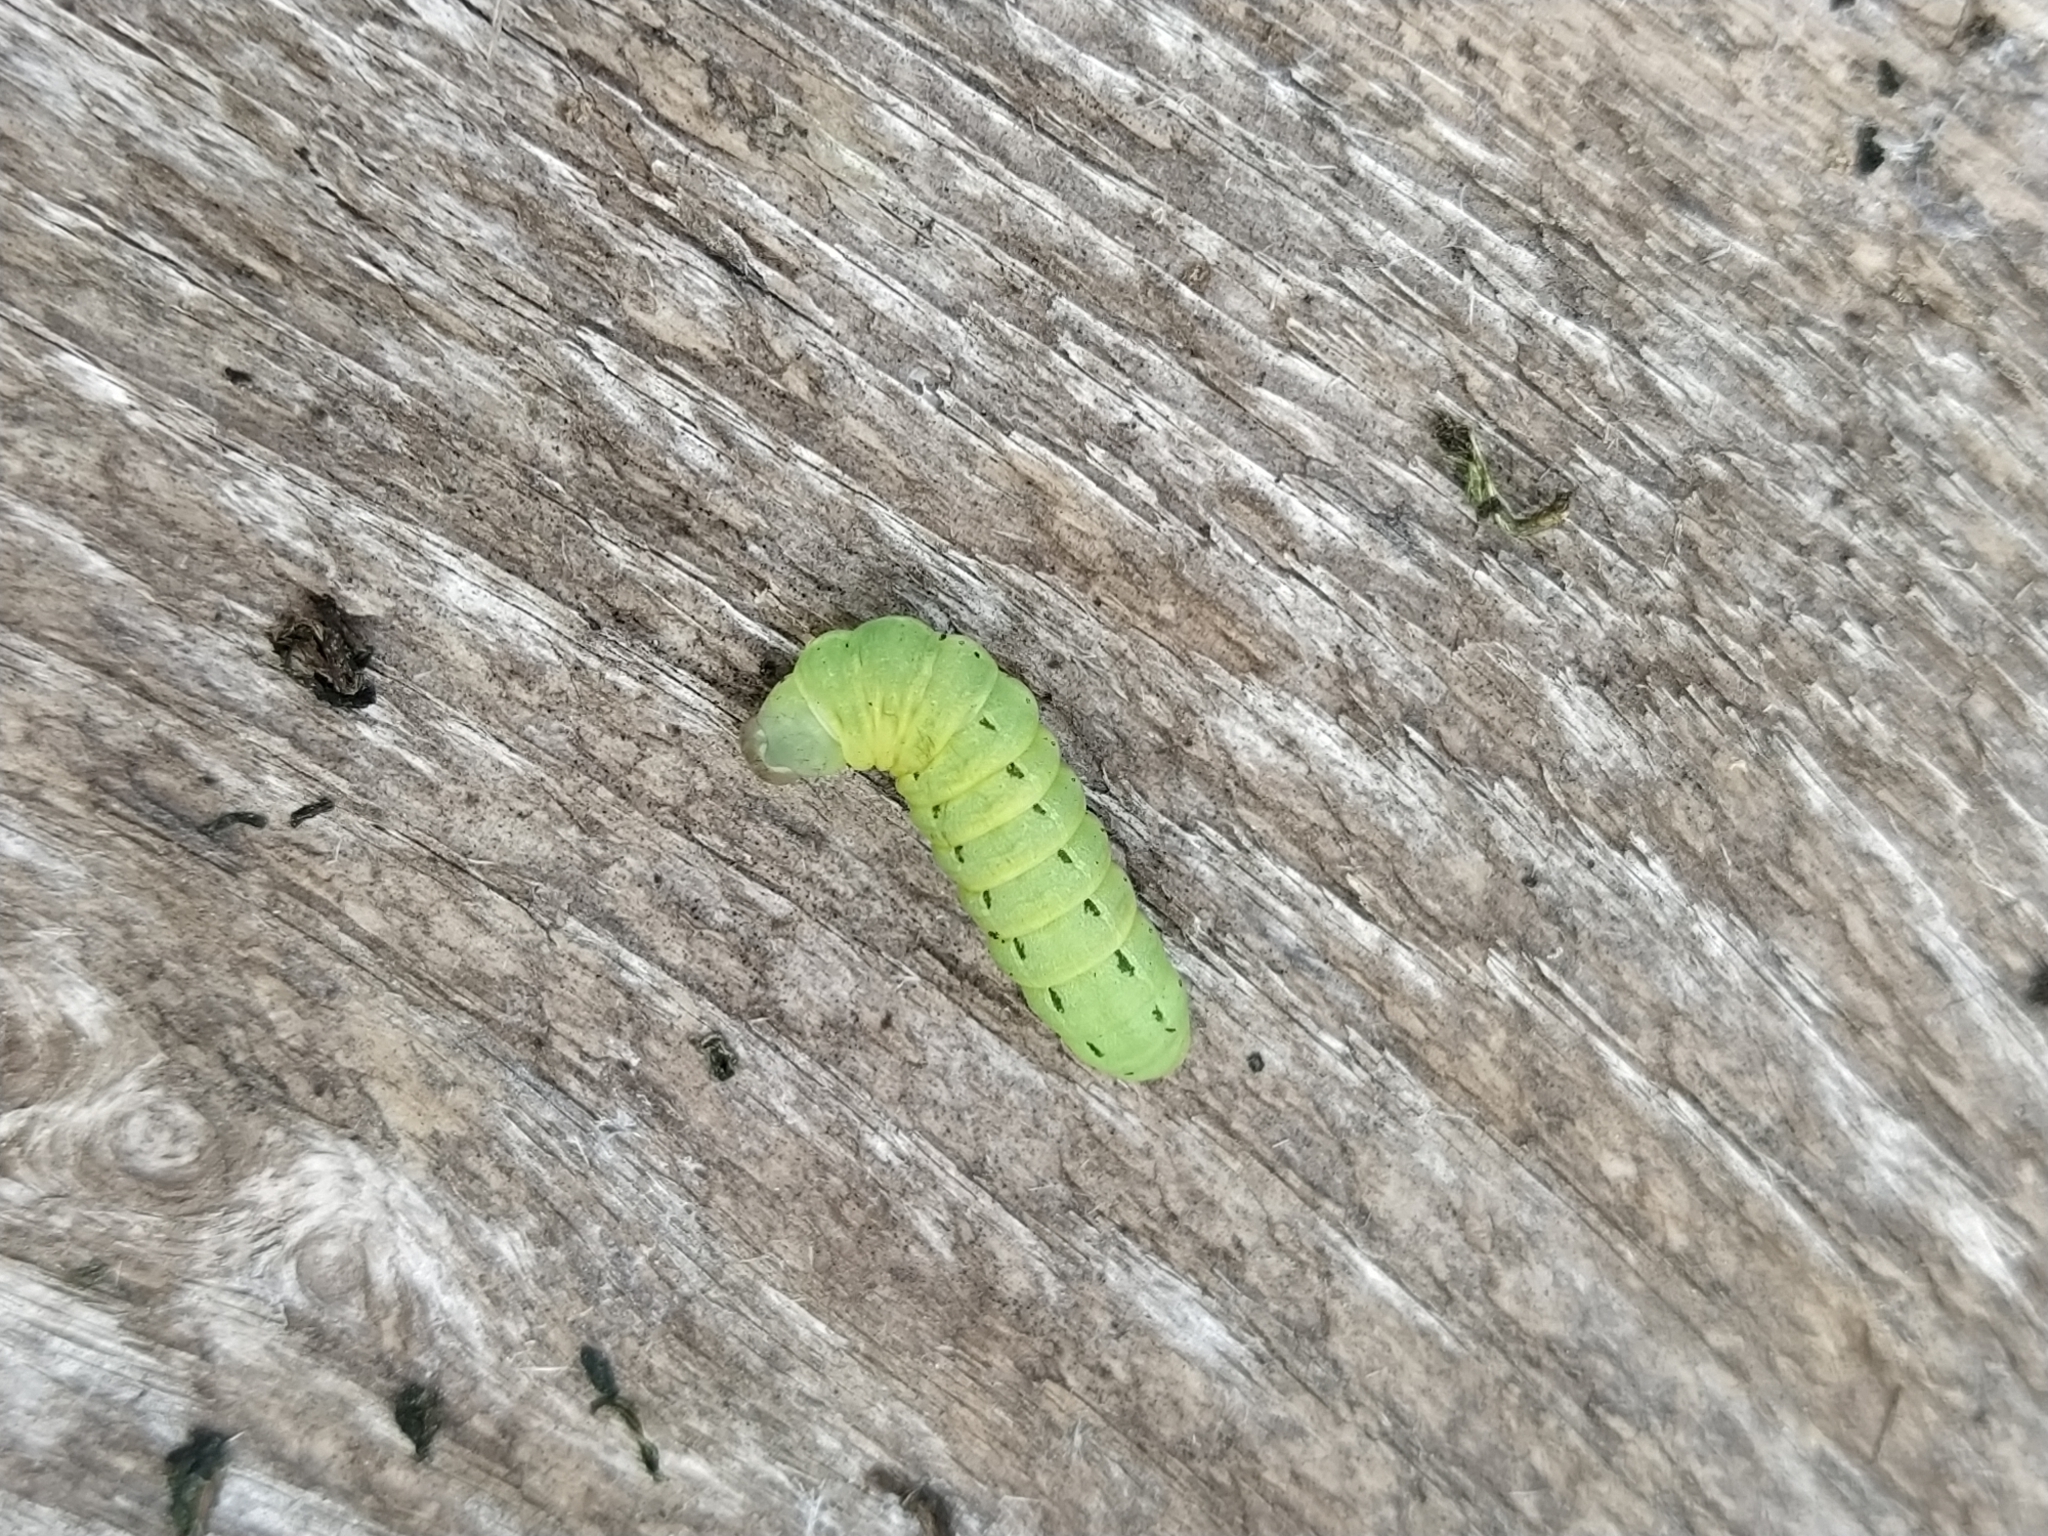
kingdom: Animalia
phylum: Arthropoda
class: Insecta
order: Lepidoptera
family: Noctuidae
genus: Noctua
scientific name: Noctua pronuba
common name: Large yellow underwing
